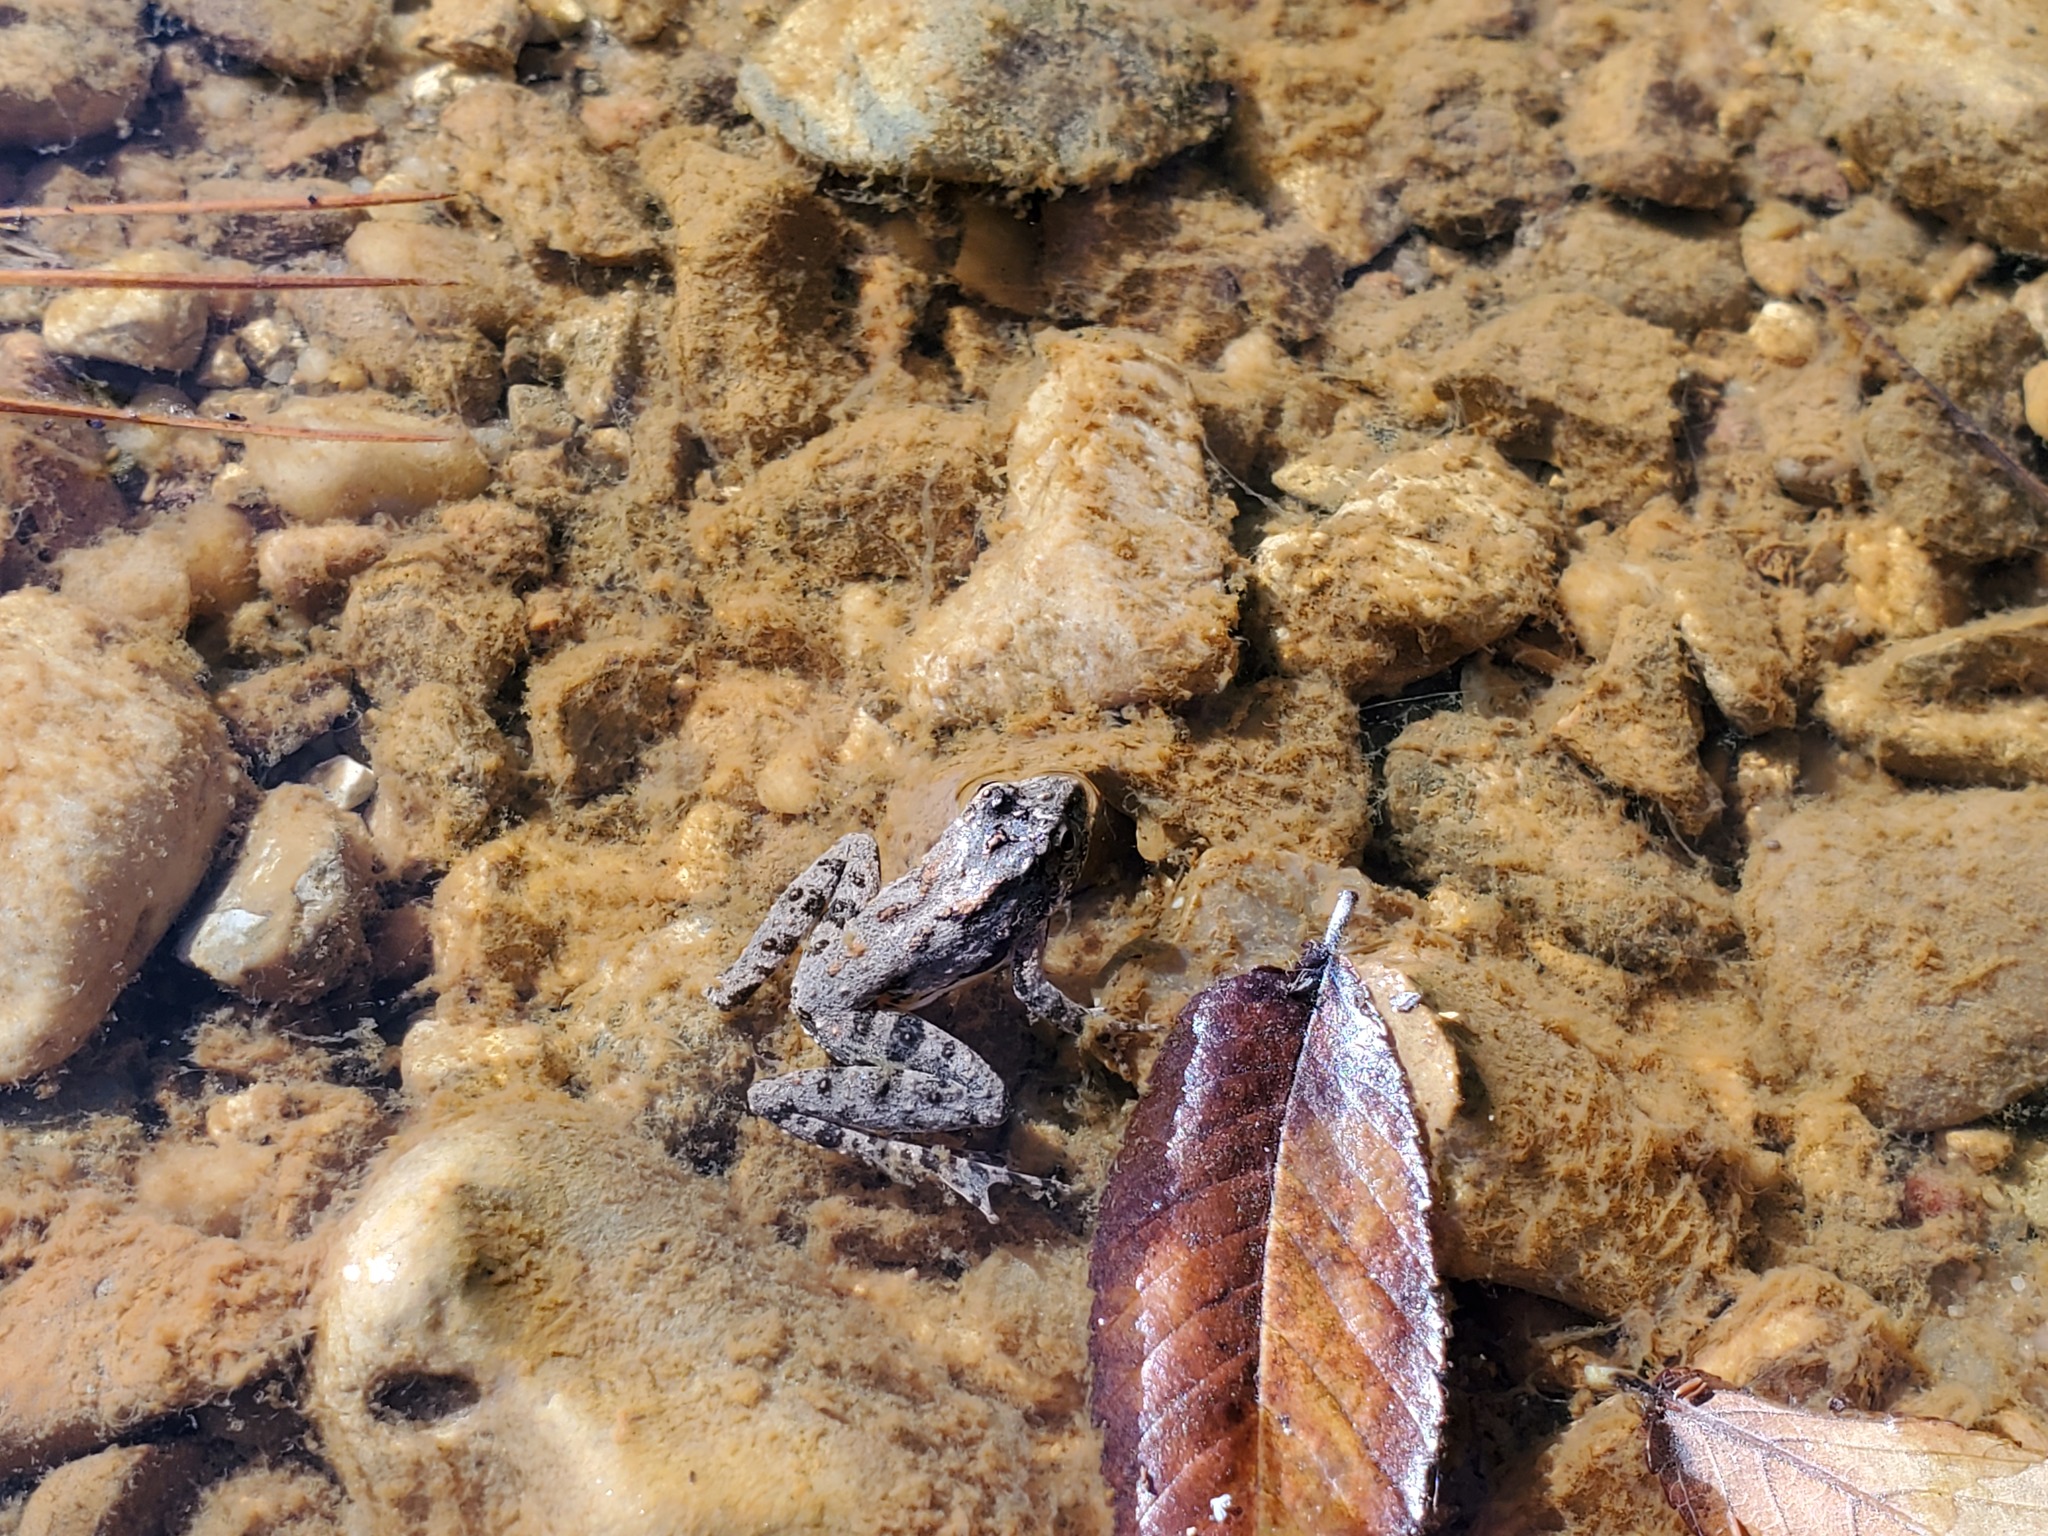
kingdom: Animalia
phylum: Chordata
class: Amphibia
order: Anura
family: Hylidae
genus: Acris
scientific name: Acris blanchardi
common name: Blanchard's cricket frog
